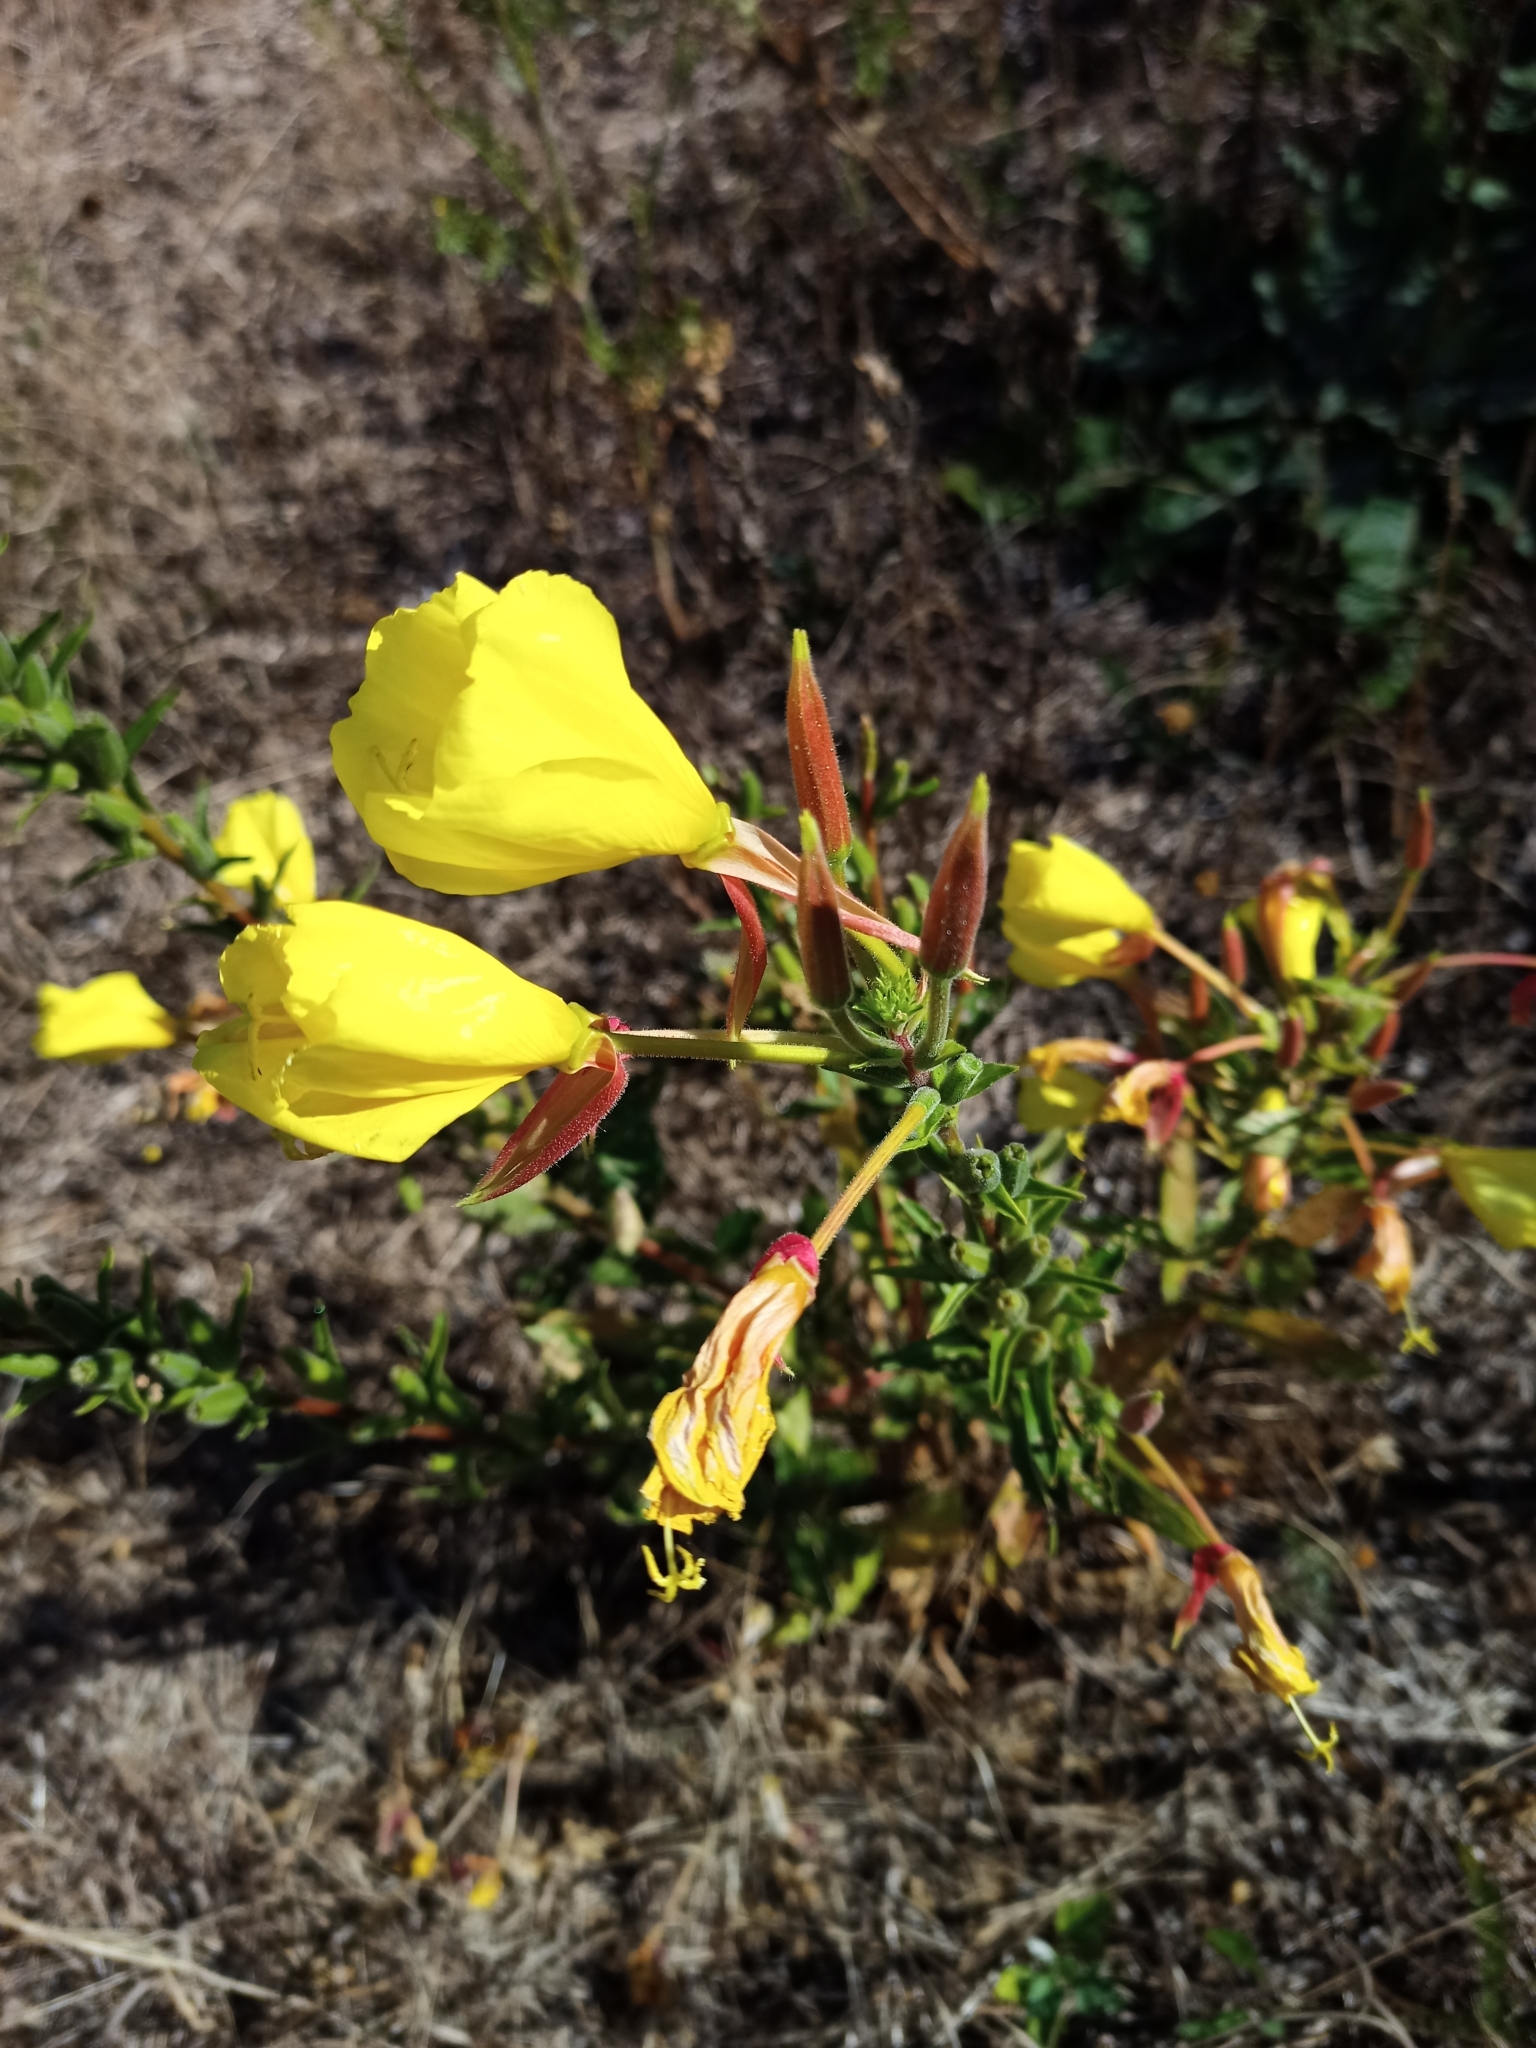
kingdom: Plantae
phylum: Tracheophyta
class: Magnoliopsida
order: Myrtales
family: Onagraceae
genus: Oenothera
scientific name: Oenothera glazioviana
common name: Large-flowered evening-primrose
